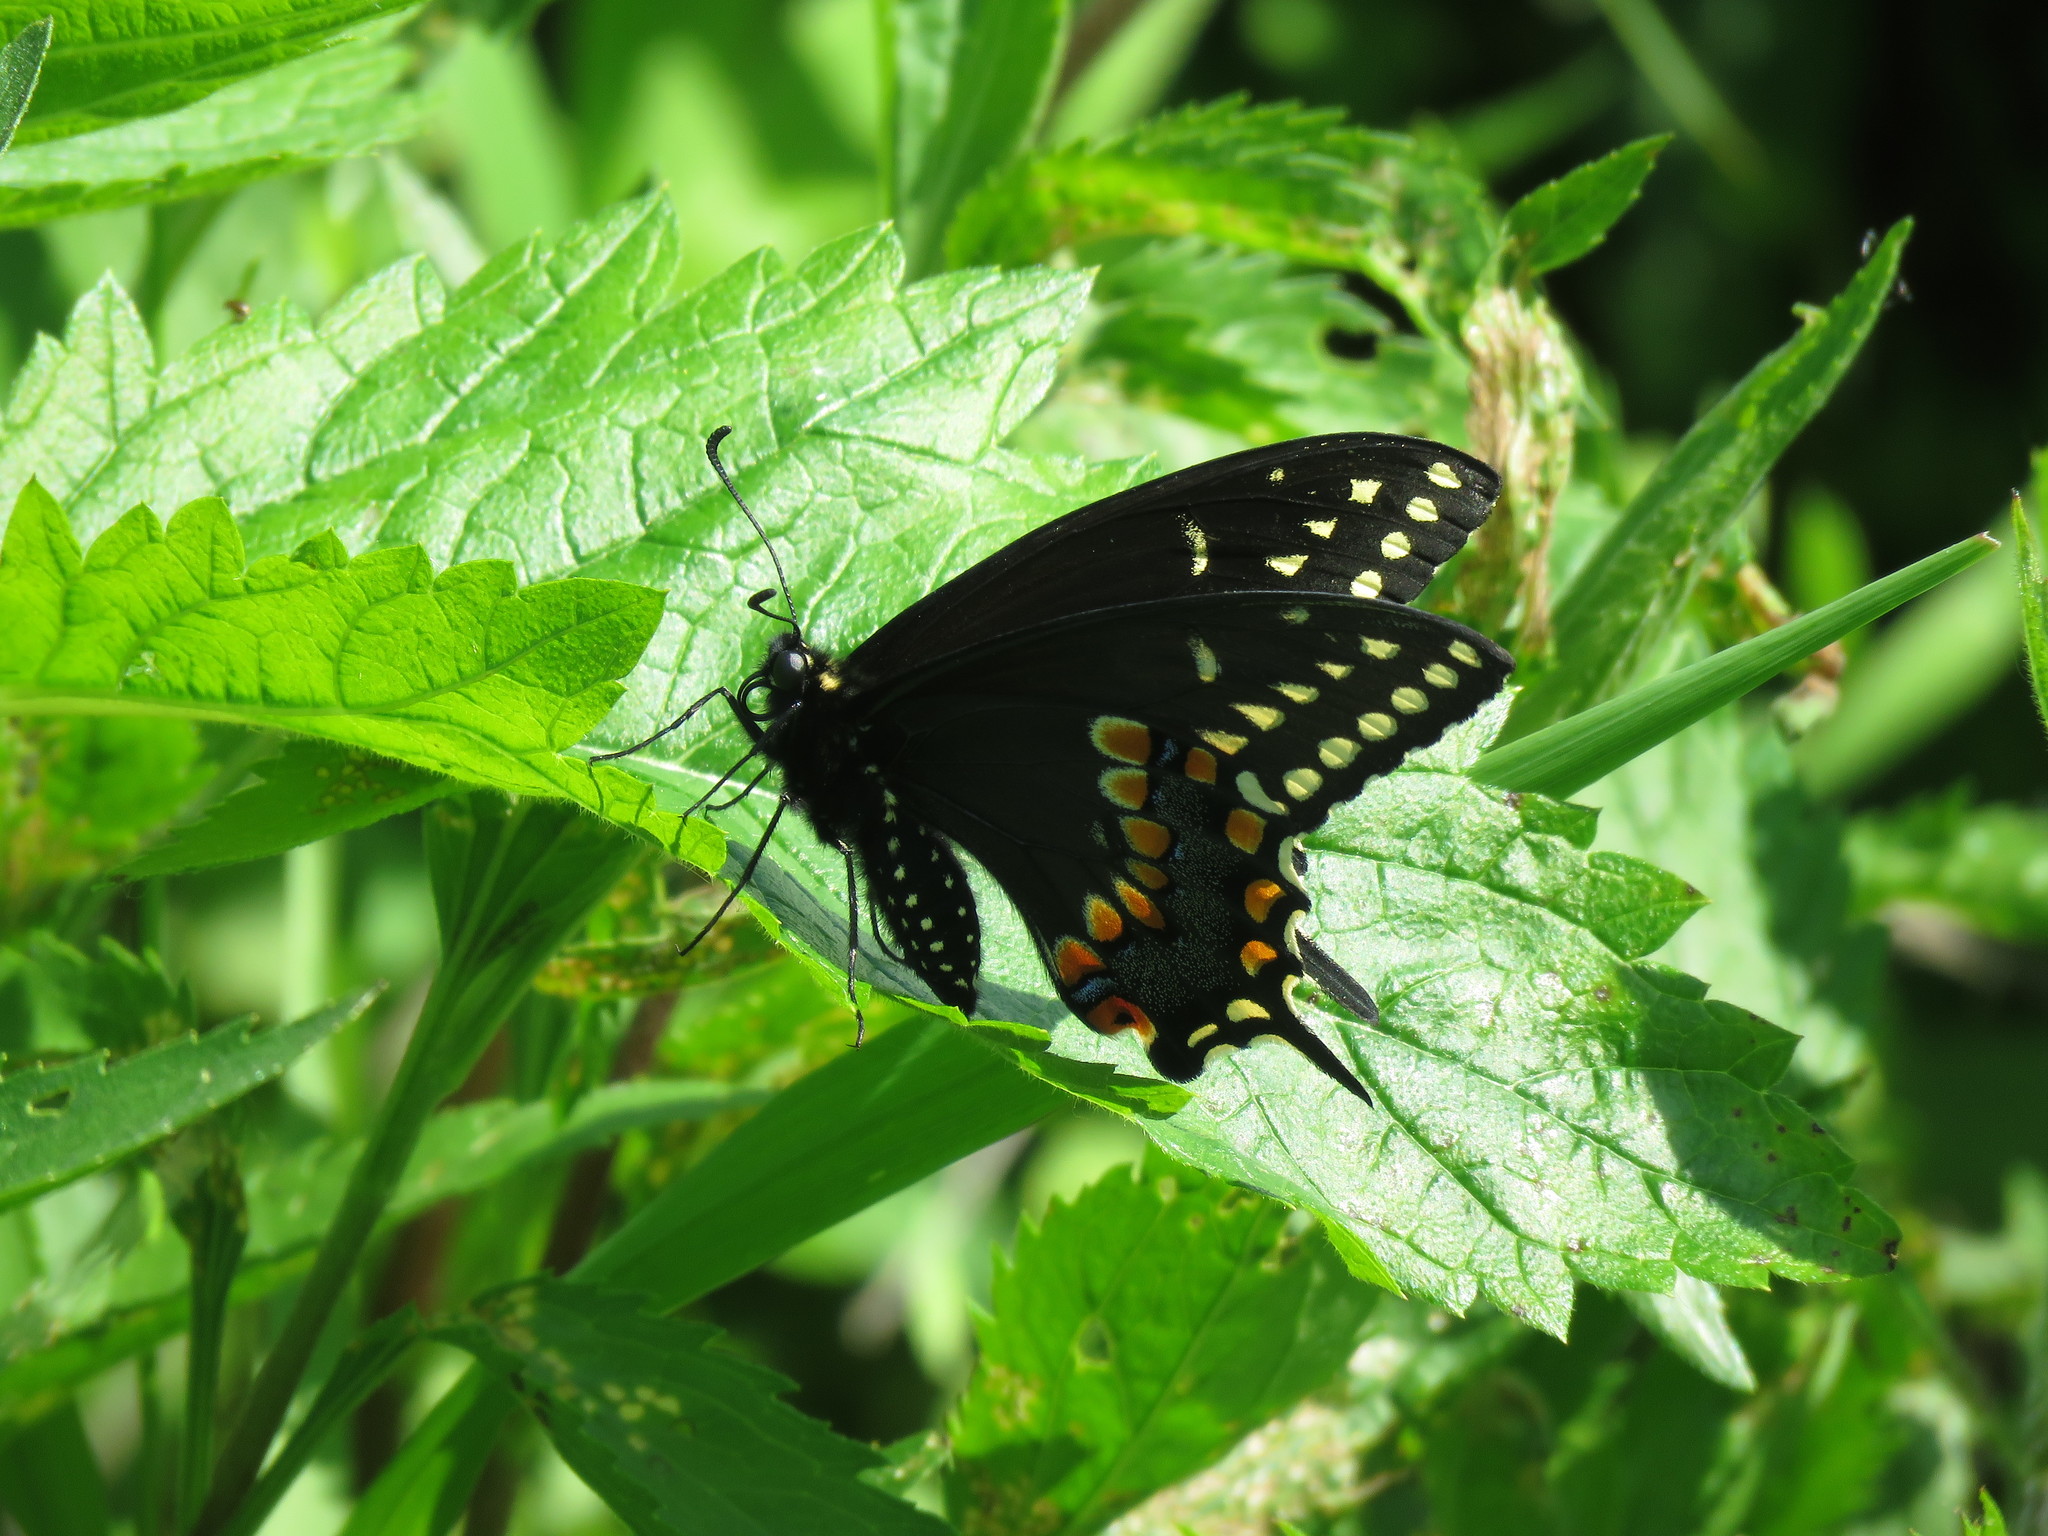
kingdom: Animalia
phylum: Arthropoda
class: Insecta
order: Lepidoptera
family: Papilionidae
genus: Papilio
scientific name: Papilio polyxenes
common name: Black swallowtail
